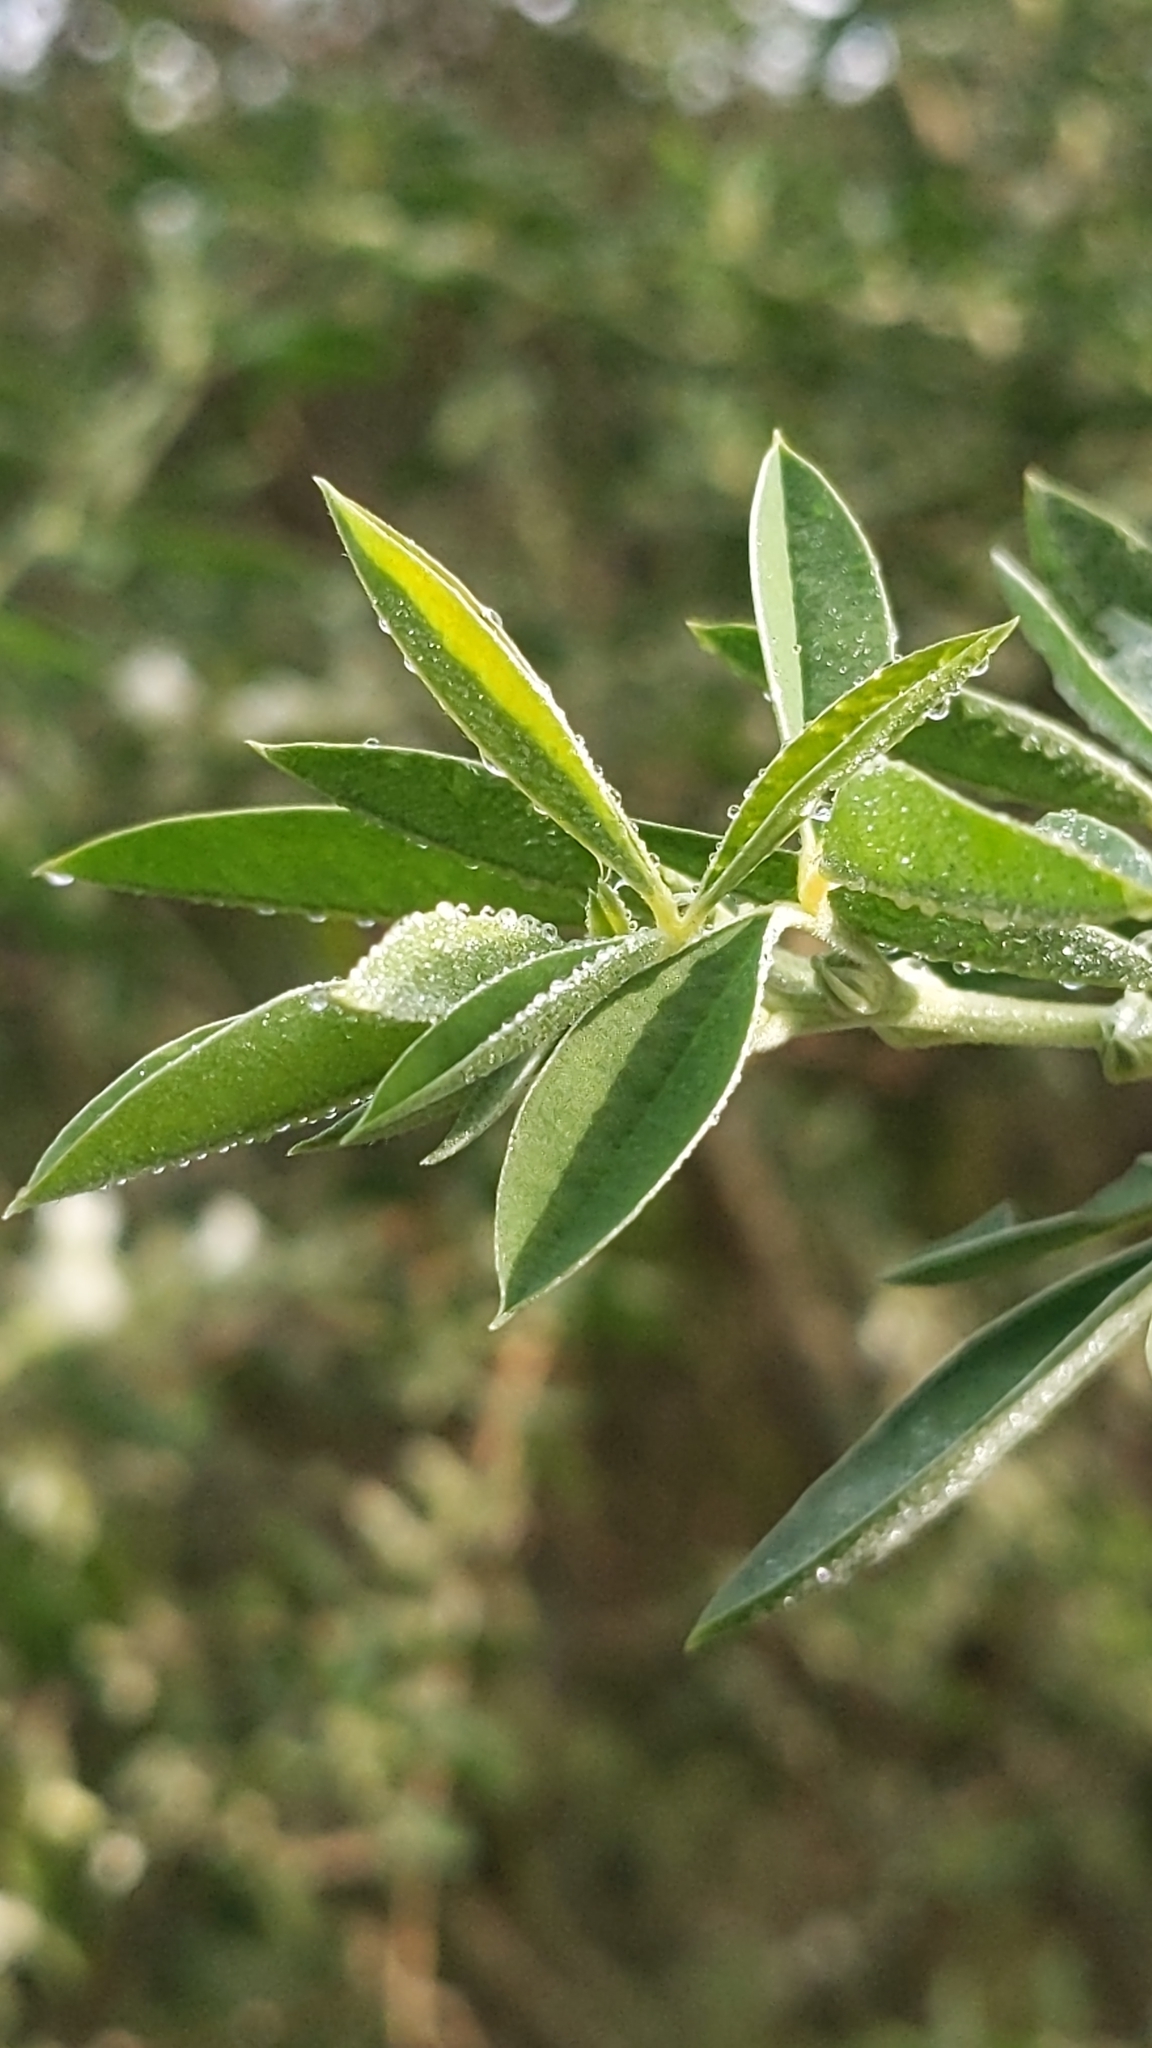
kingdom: Plantae
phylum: Tracheophyta
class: Magnoliopsida
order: Fabales
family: Fabaceae
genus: Chamaecytisus
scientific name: Chamaecytisus prolifer
